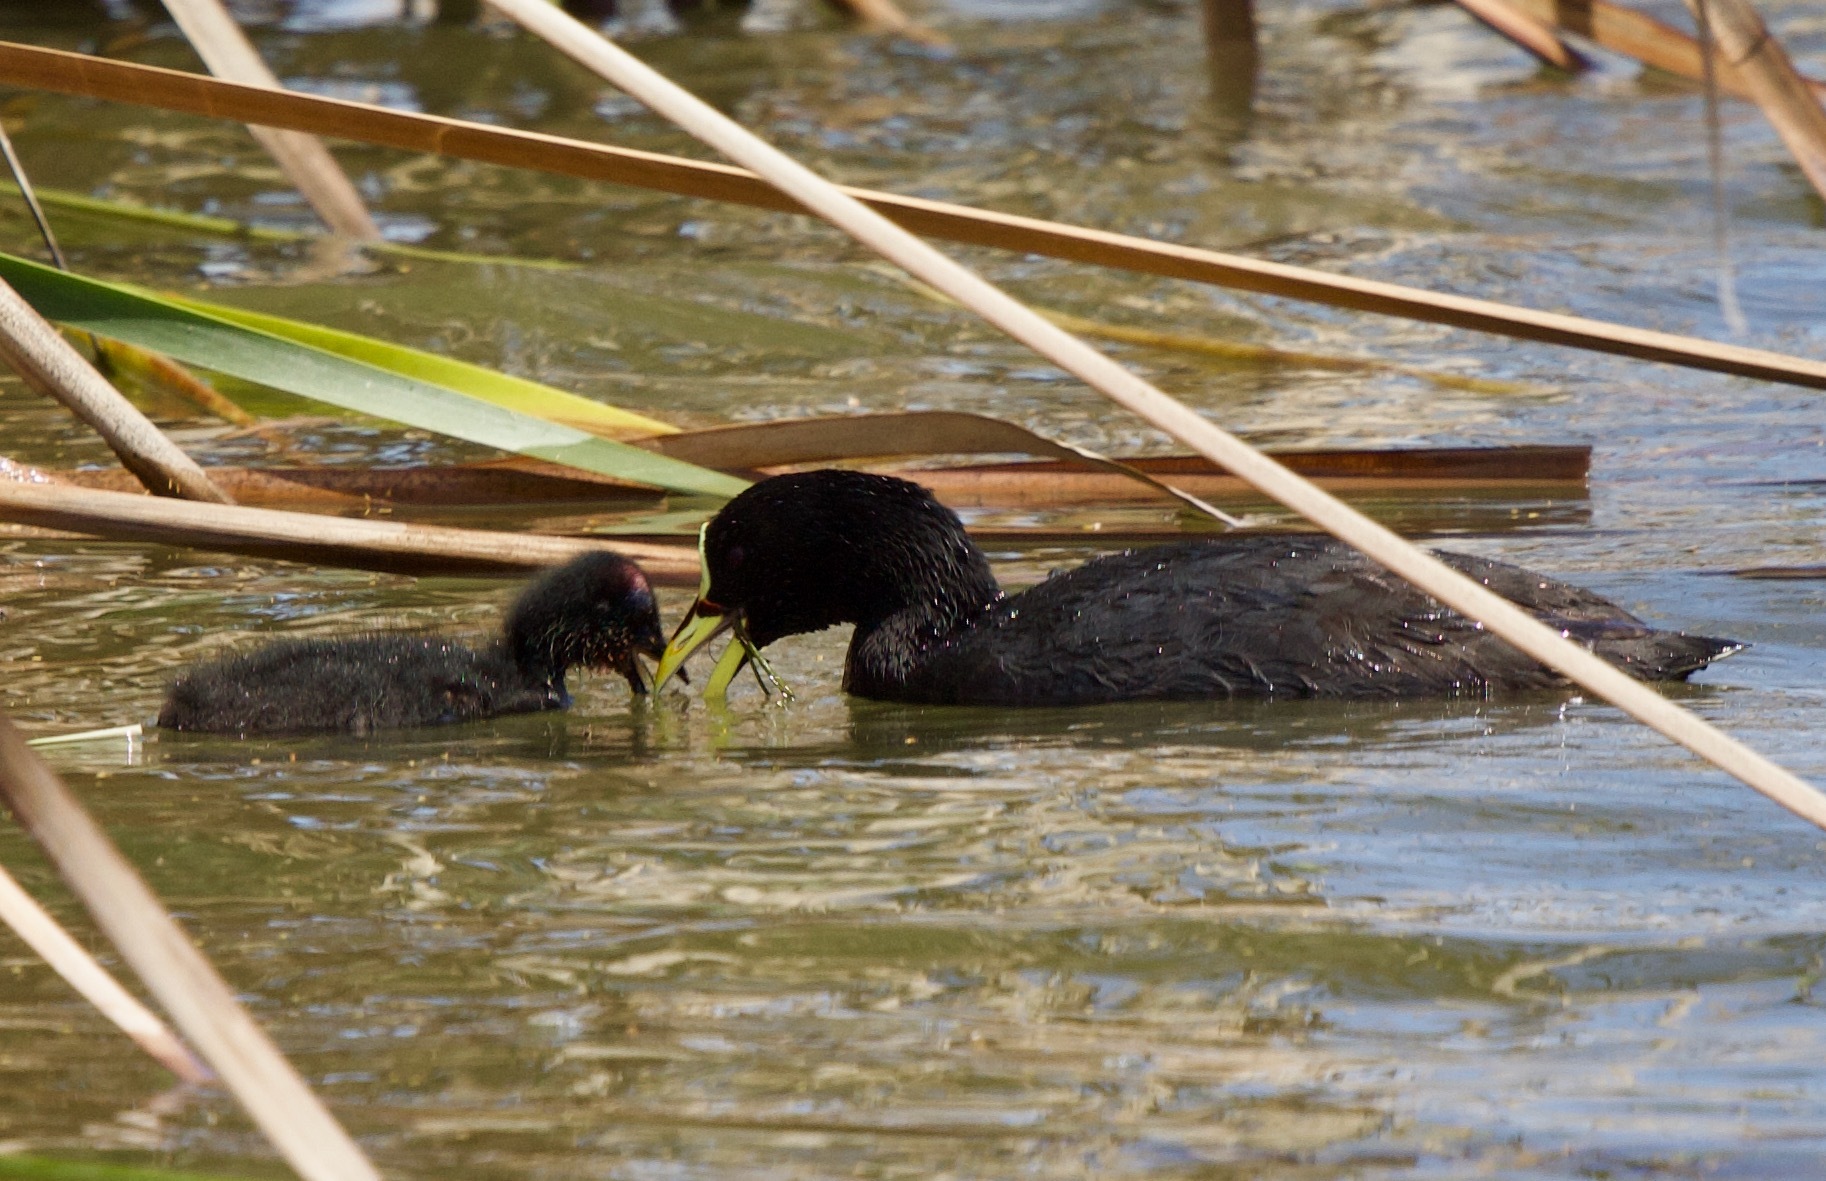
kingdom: Animalia
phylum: Chordata
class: Aves
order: Gruiformes
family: Rallidae
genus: Fulica
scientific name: Fulica armillata
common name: Red-gartered coot
